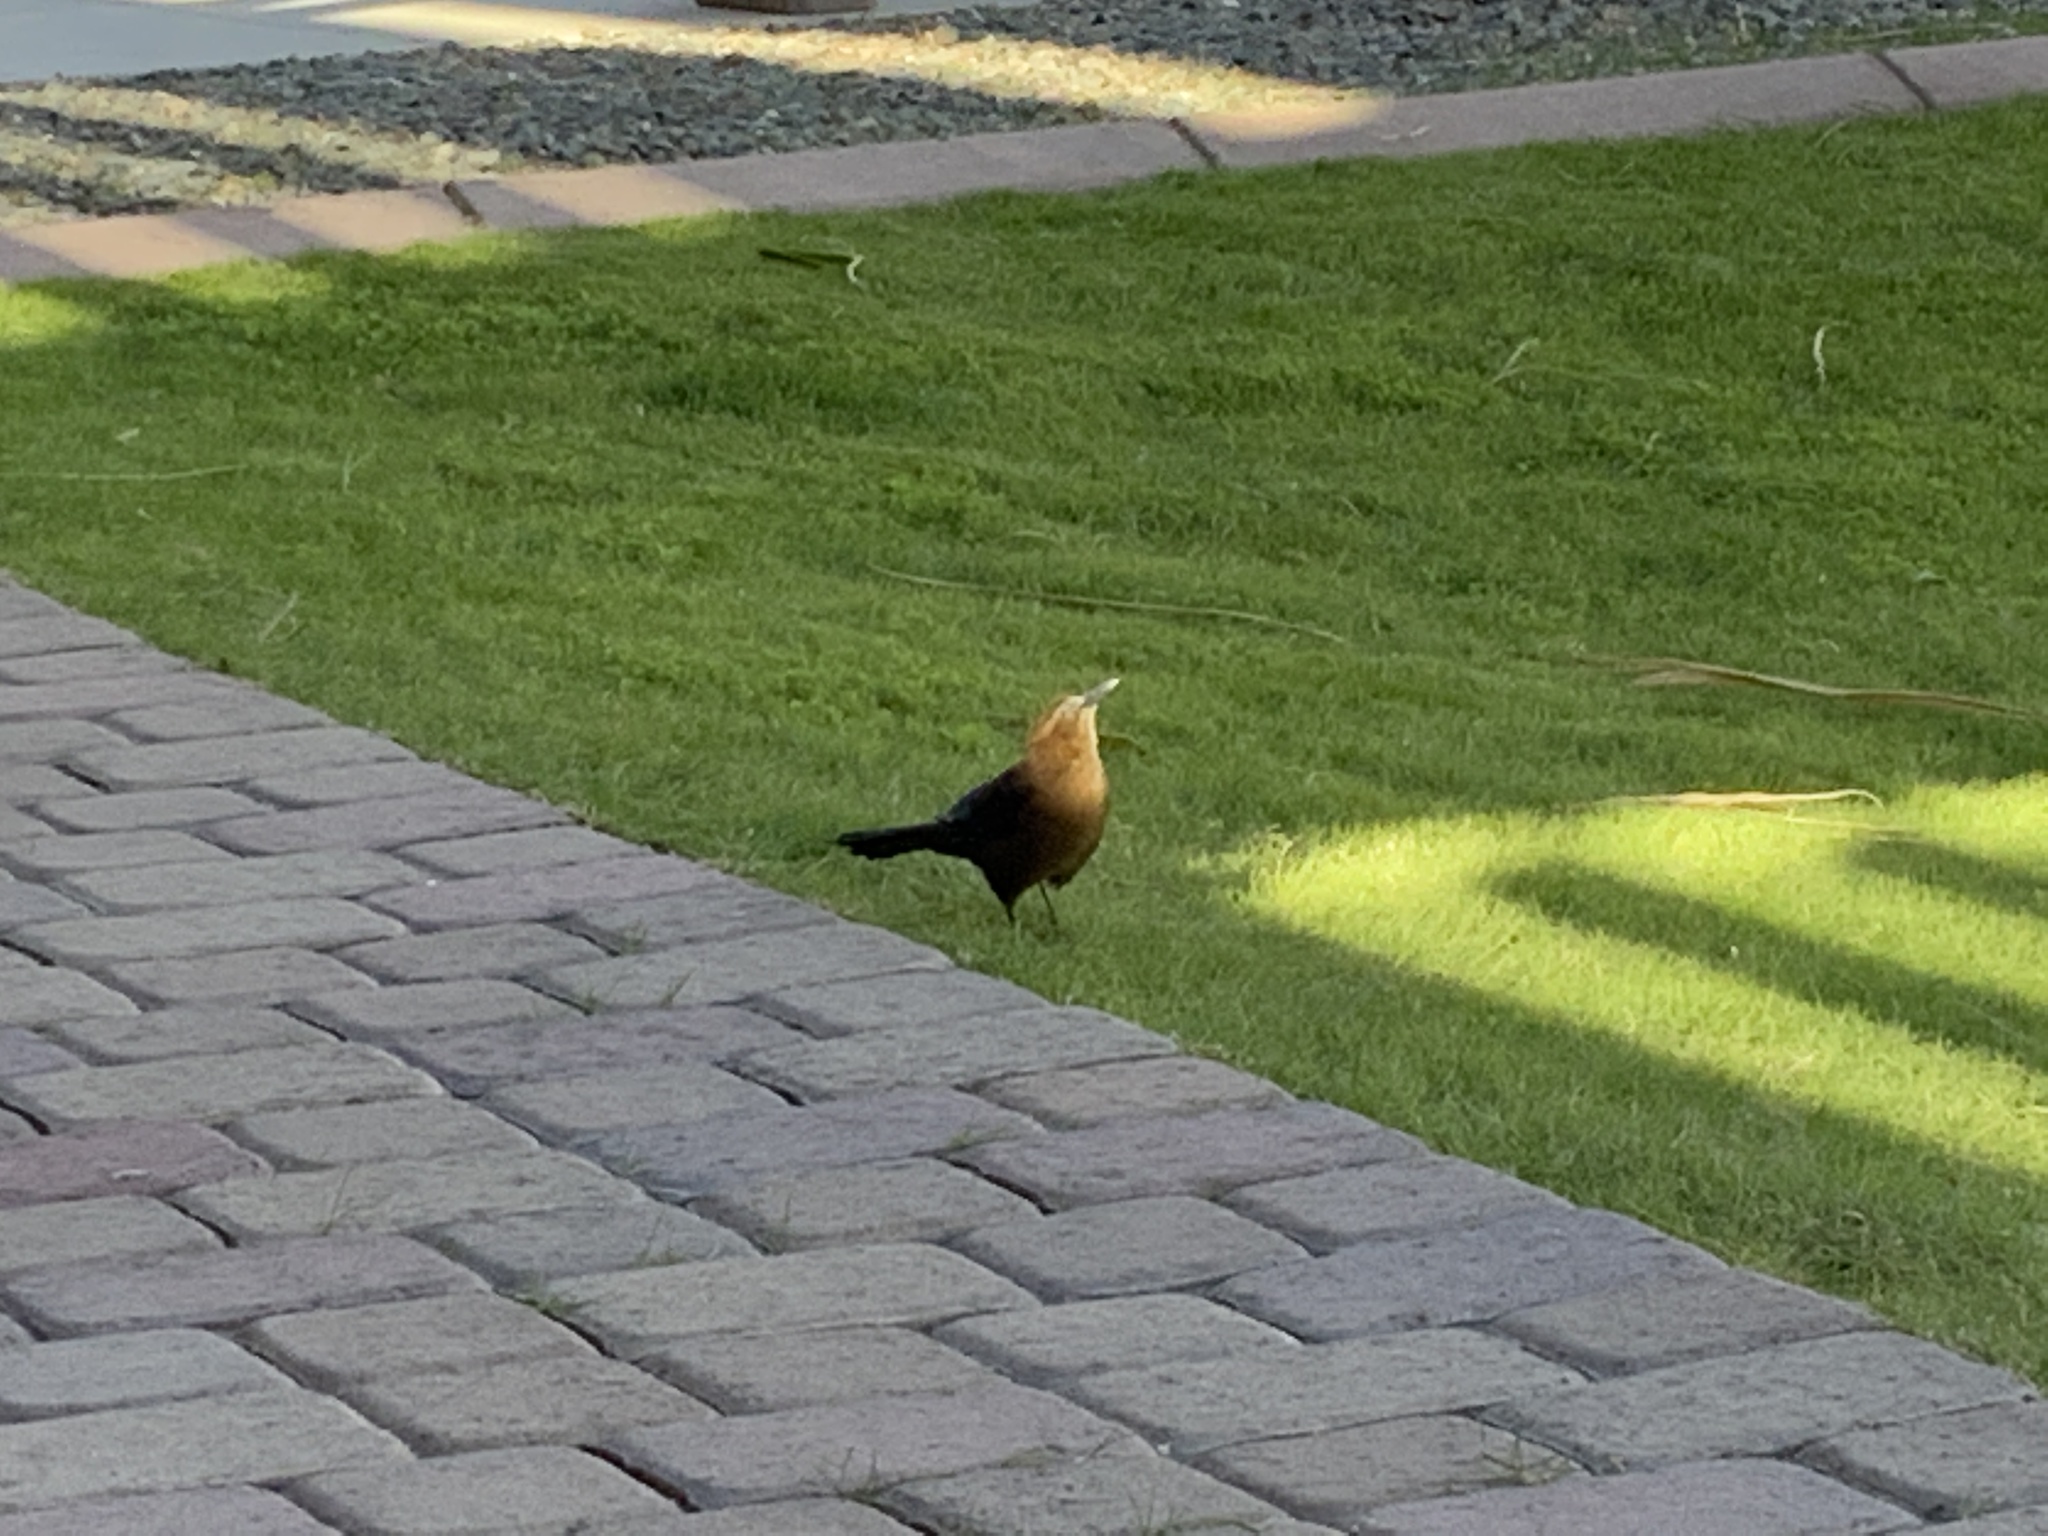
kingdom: Animalia
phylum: Chordata
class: Aves
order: Passeriformes
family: Icteridae
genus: Quiscalus
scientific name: Quiscalus mexicanus
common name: Great-tailed grackle
